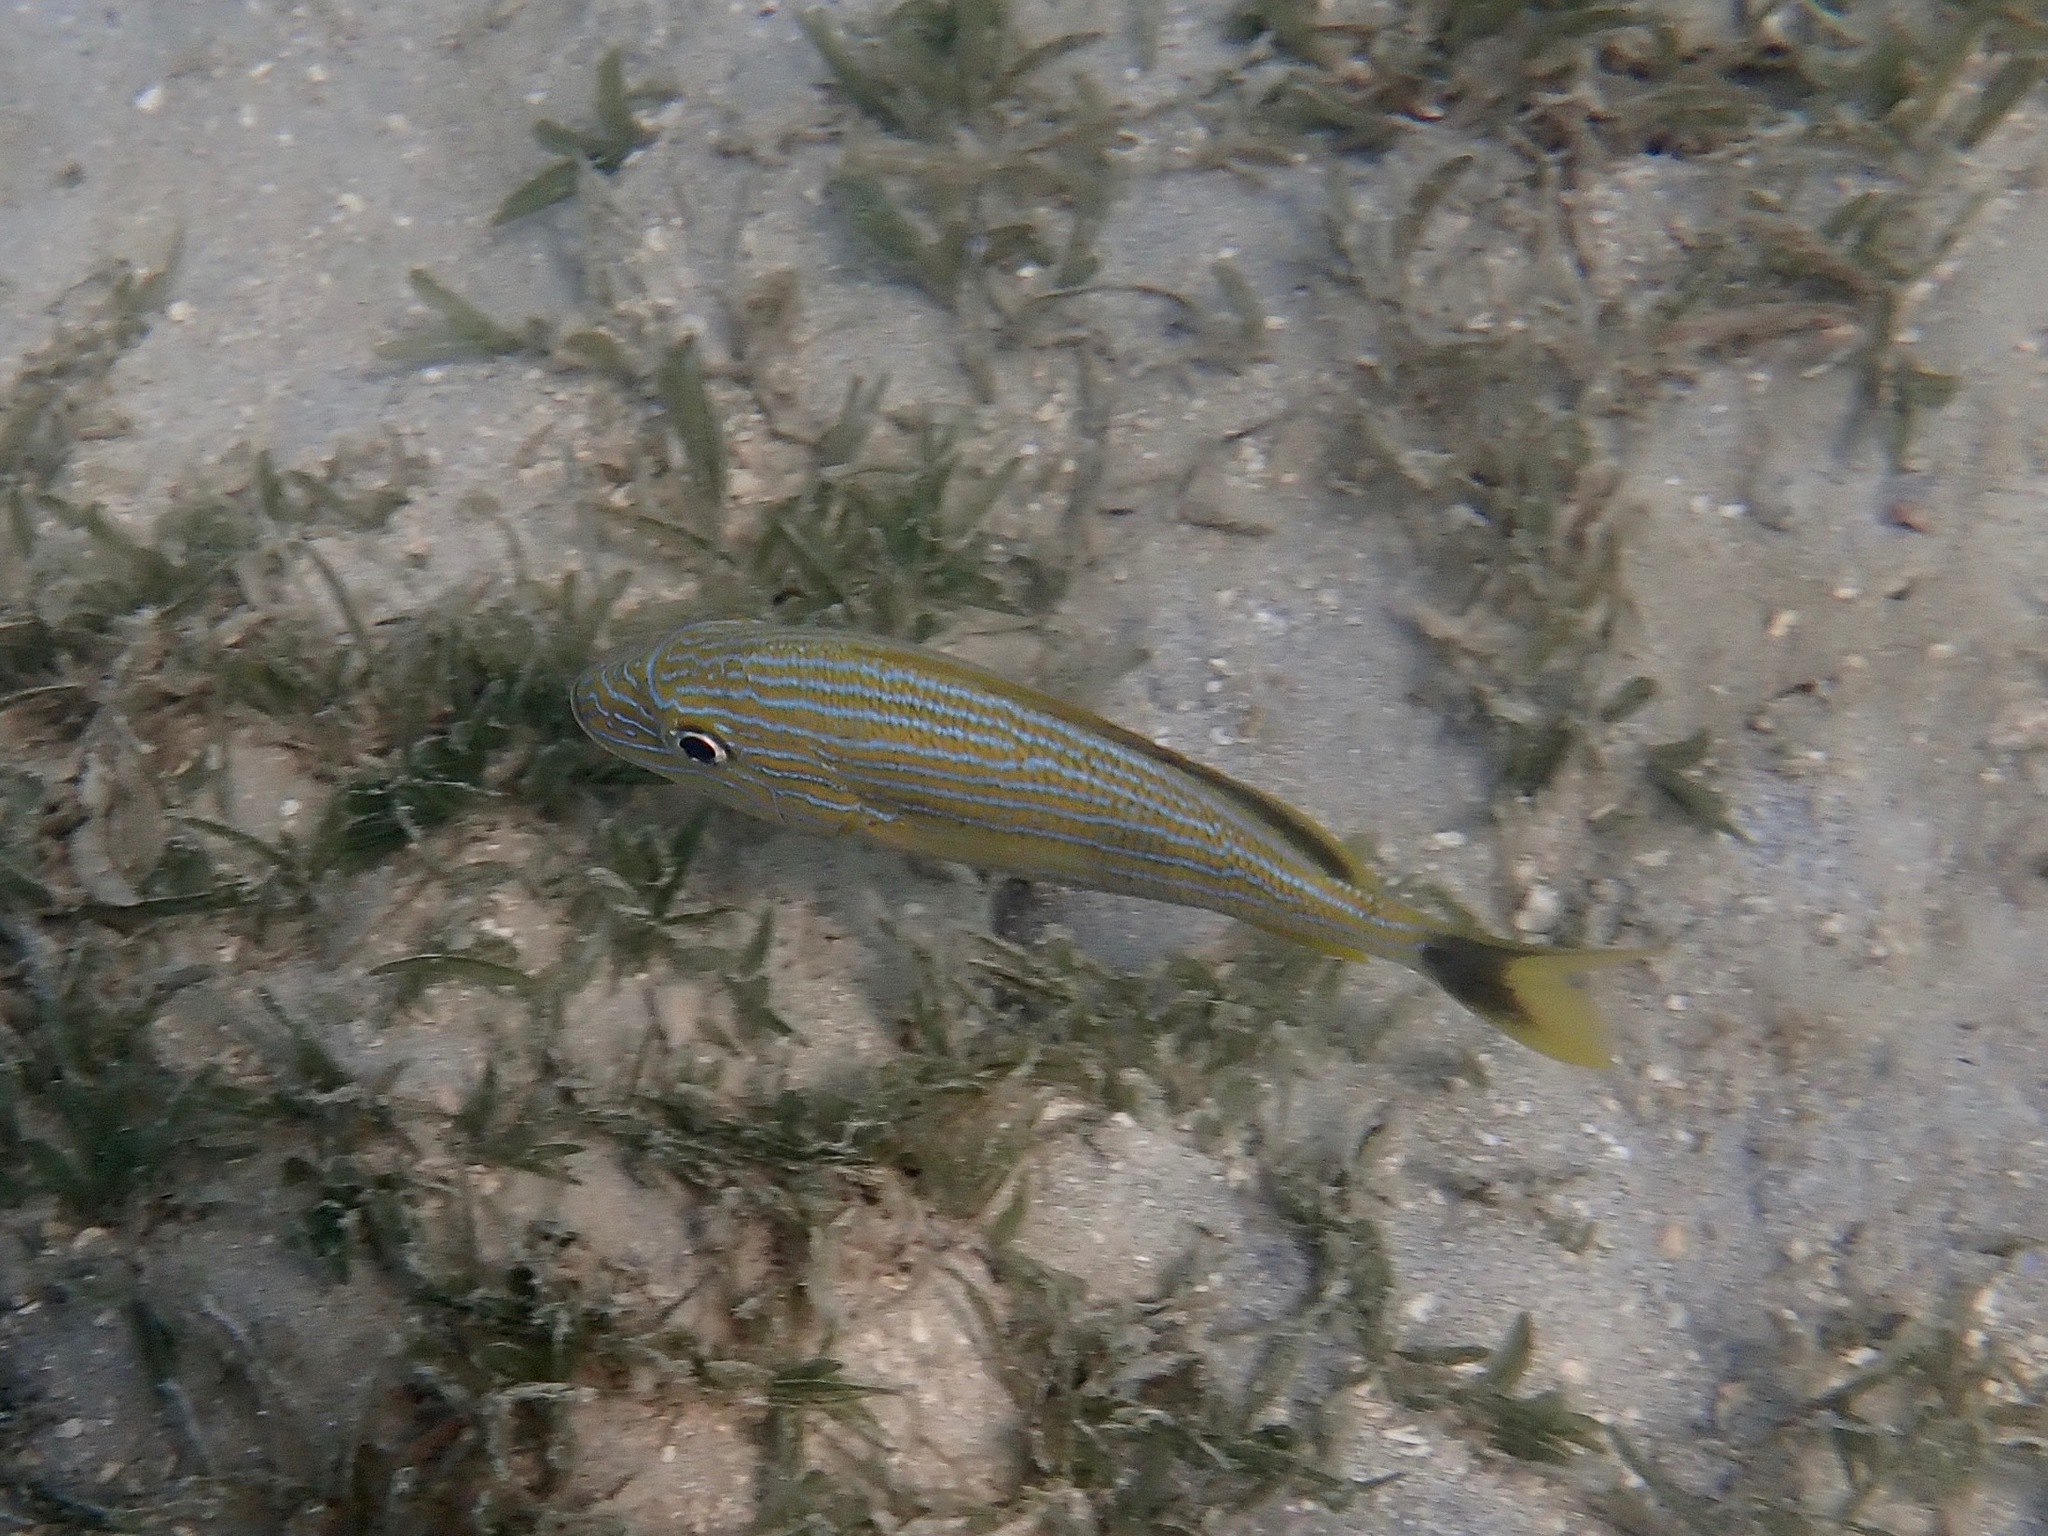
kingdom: Animalia
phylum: Chordata
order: Perciformes
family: Haemulidae
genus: Haemulon
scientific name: Haemulon sciurus
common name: Bluestriped grunt
